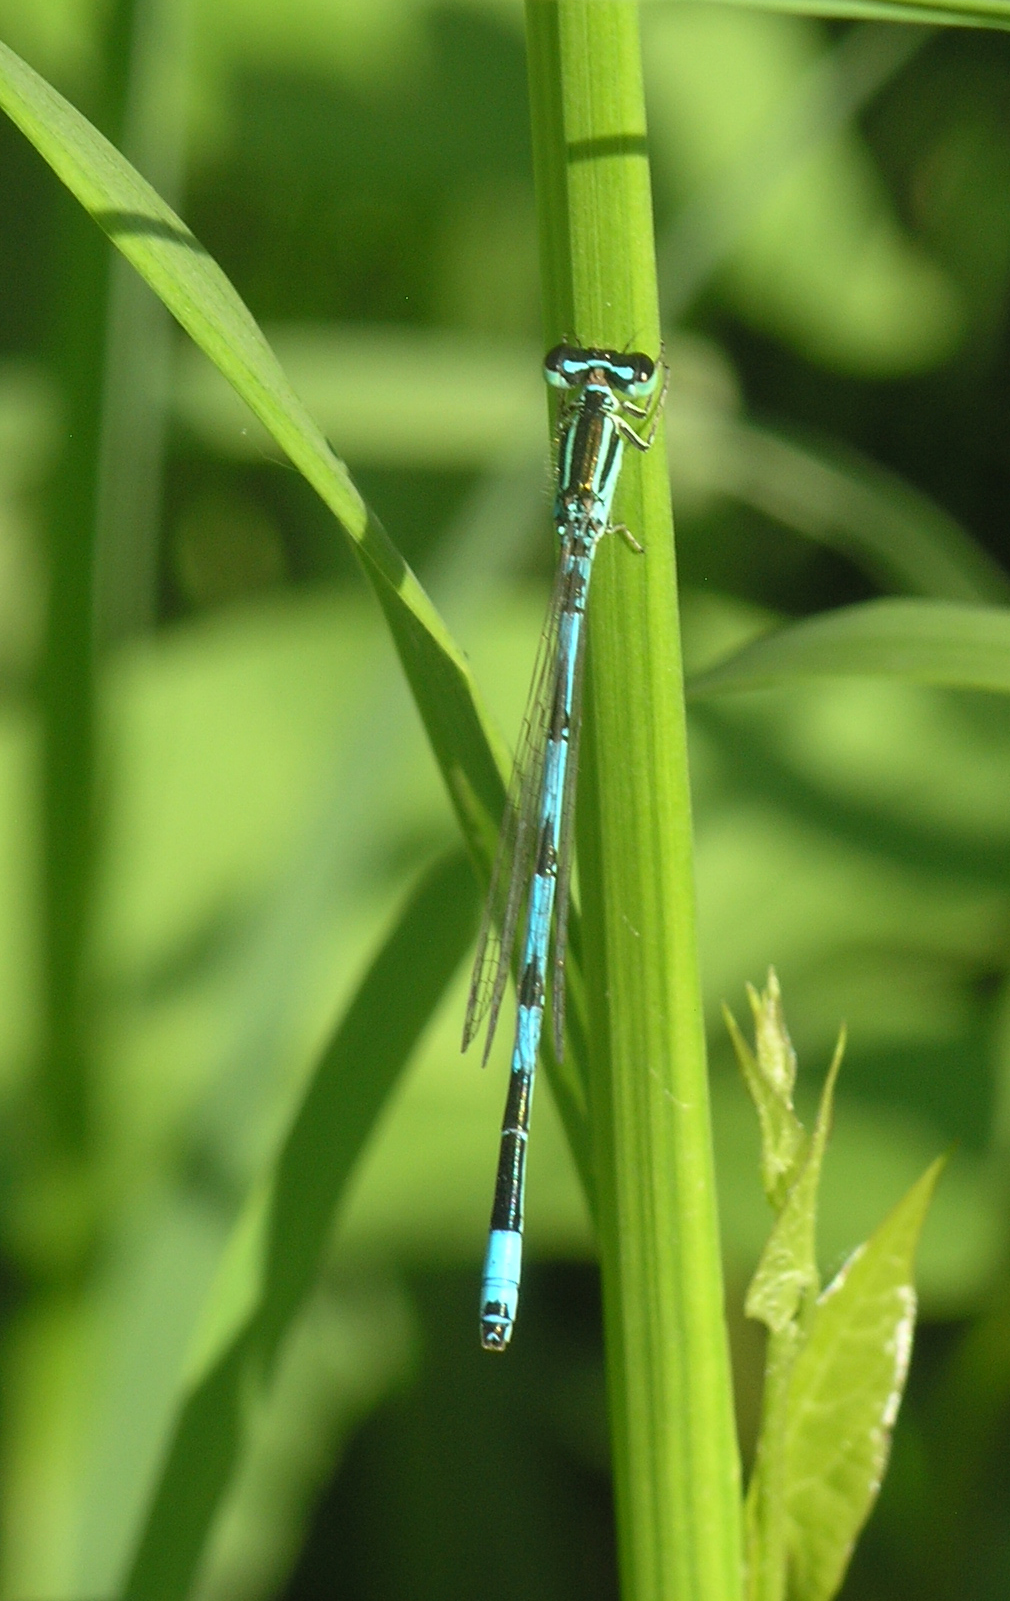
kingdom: Animalia
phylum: Arthropoda
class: Insecta
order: Odonata
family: Coenagrionidae
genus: Coenagrion
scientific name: Coenagrion ecornutum
